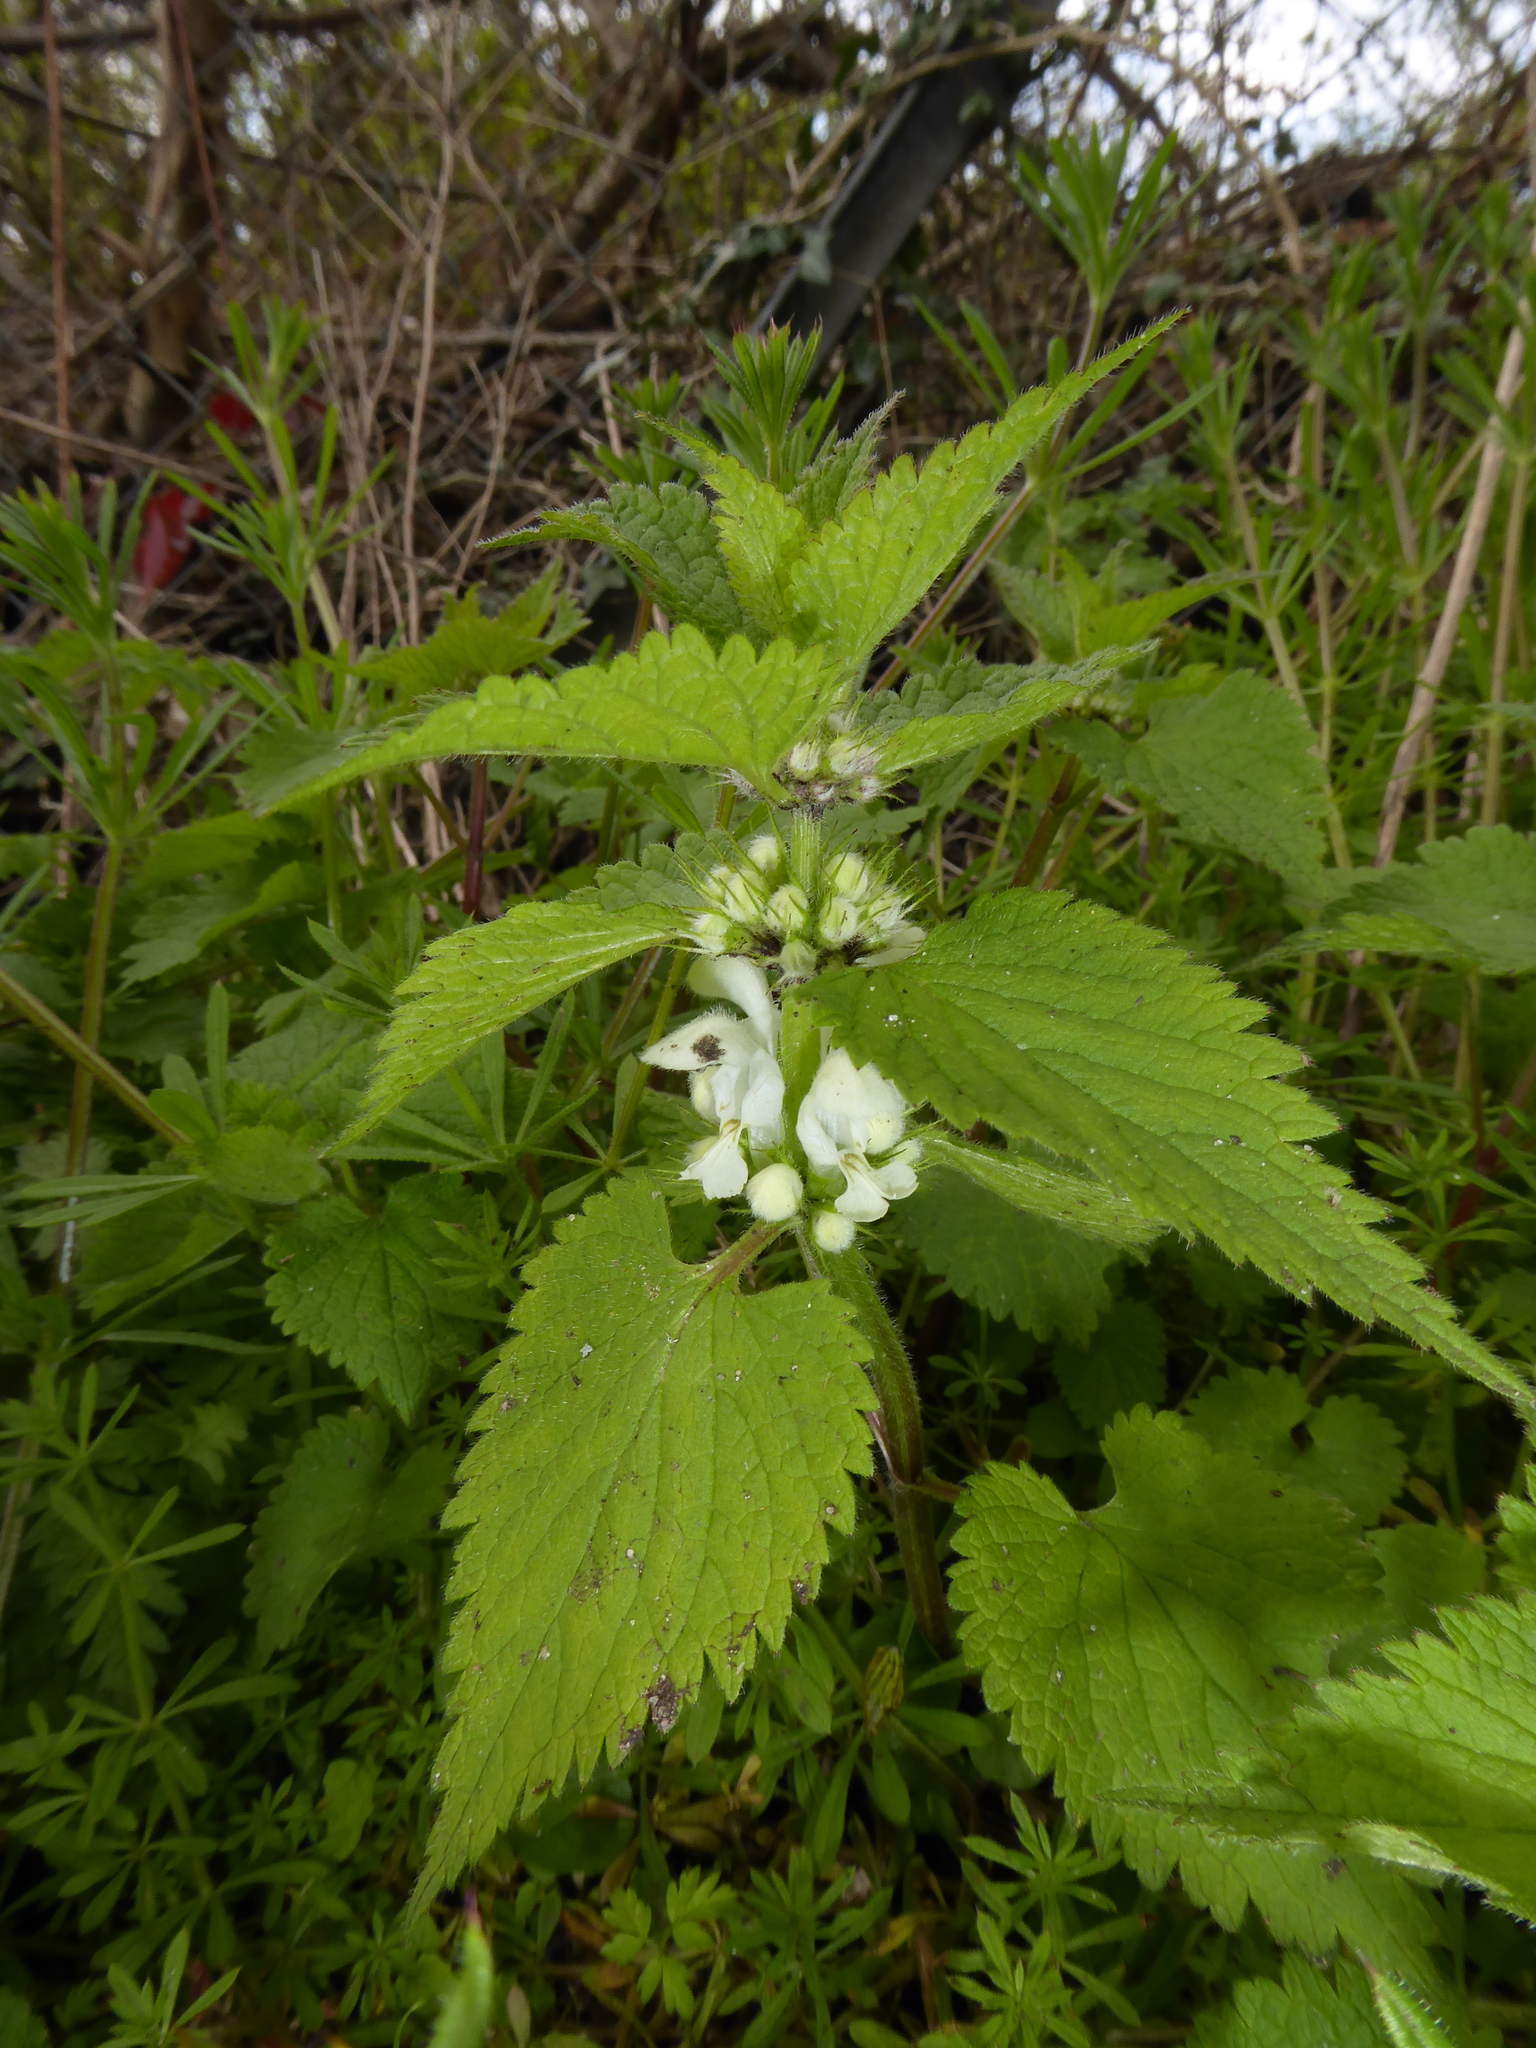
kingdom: Plantae
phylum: Tracheophyta
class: Magnoliopsida
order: Lamiales
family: Lamiaceae
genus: Lamium
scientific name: Lamium album
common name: White dead-nettle
